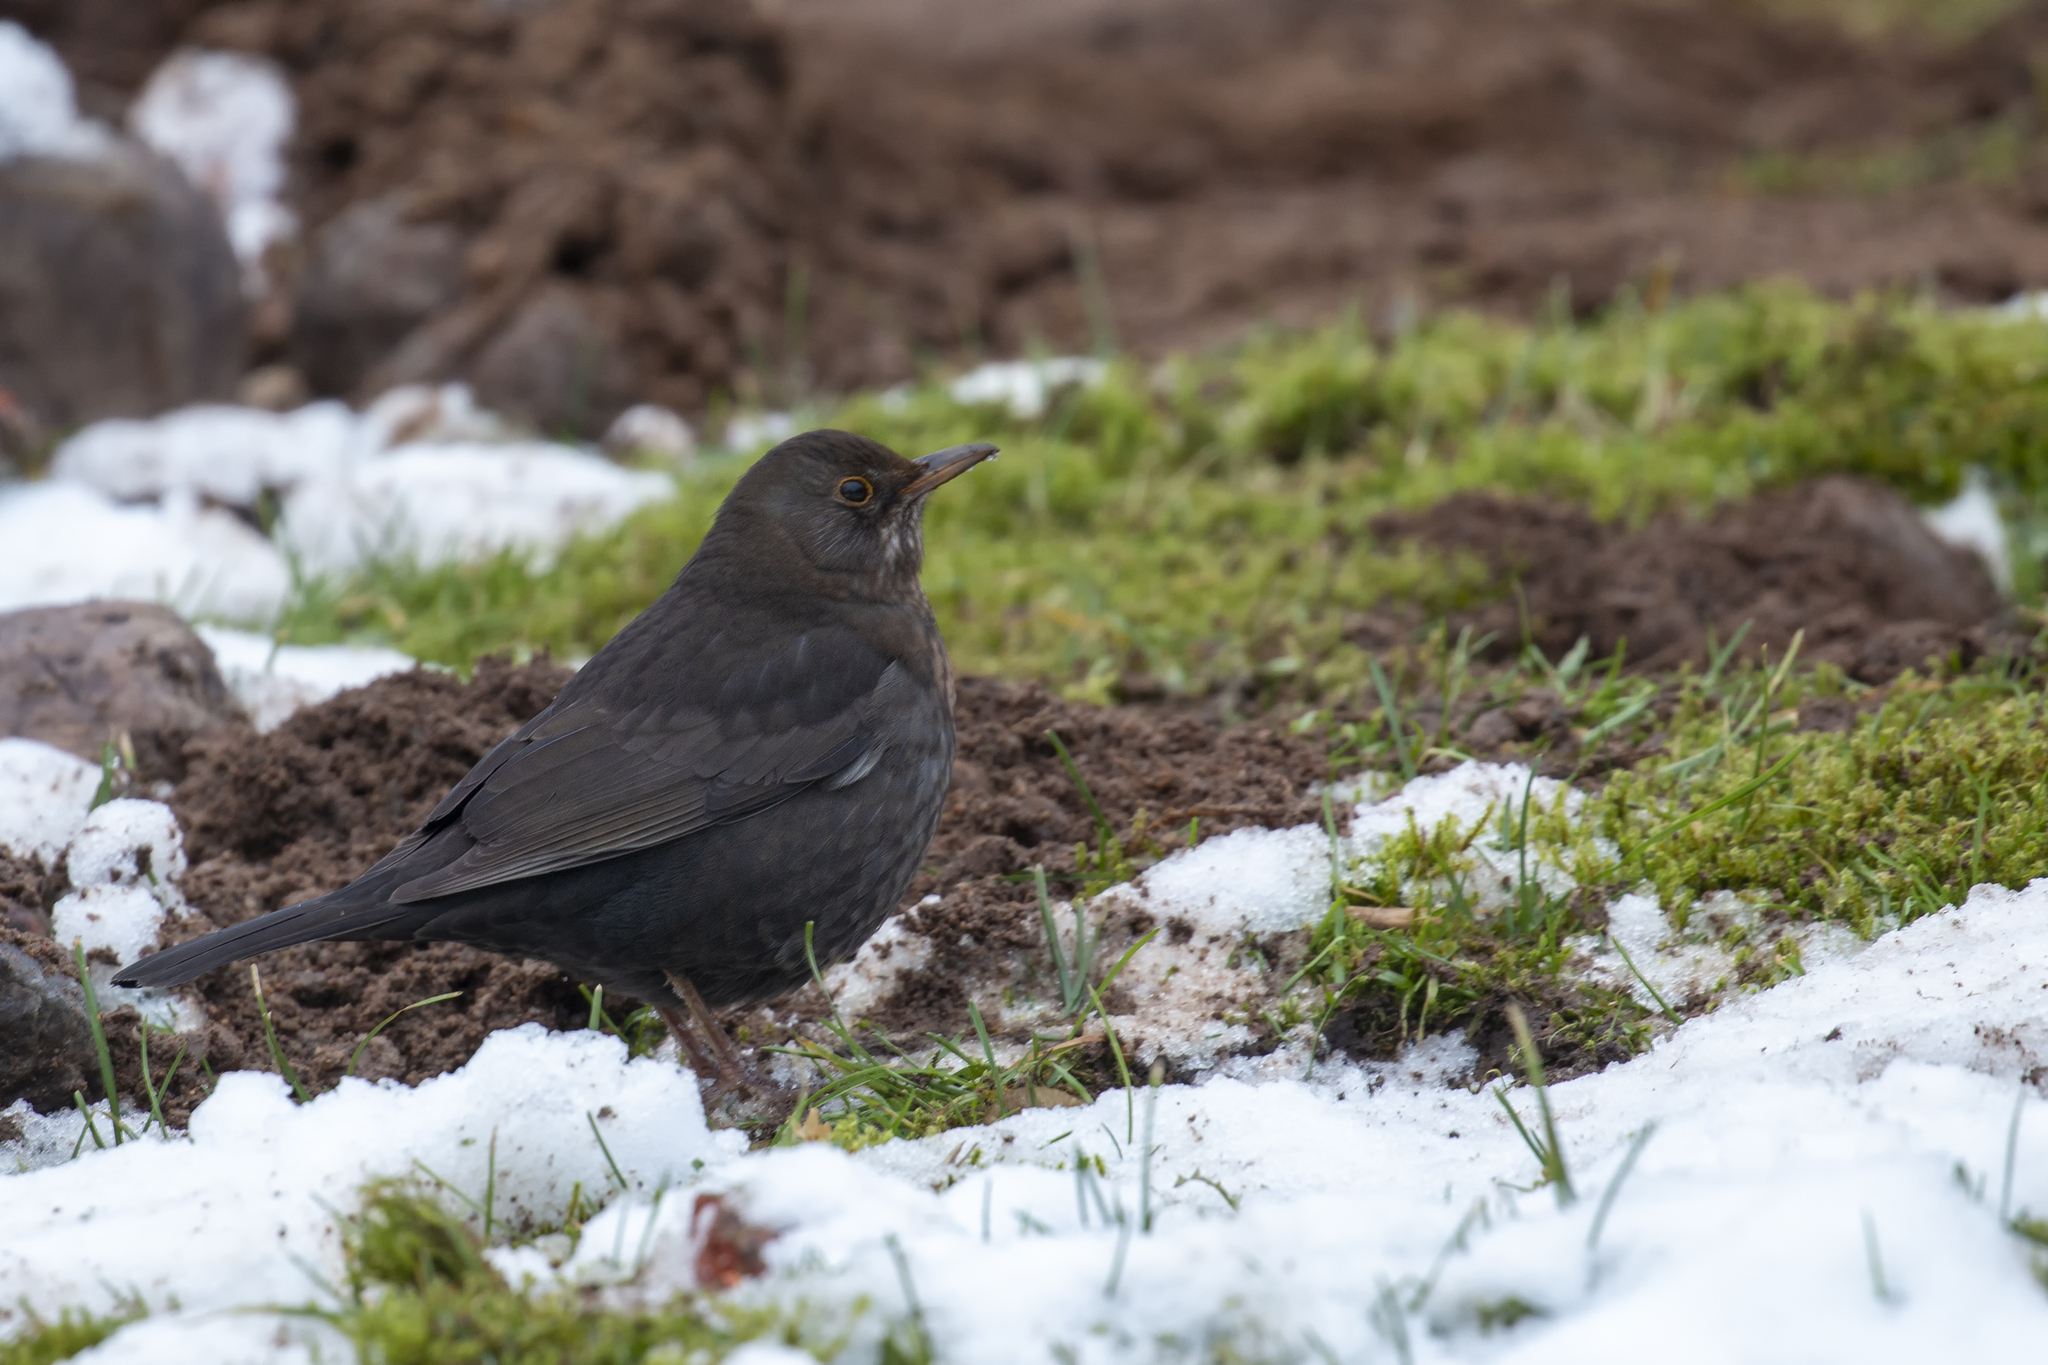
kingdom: Animalia
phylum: Chordata
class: Aves
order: Passeriformes
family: Turdidae
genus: Turdus
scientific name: Turdus merula
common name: Common blackbird
